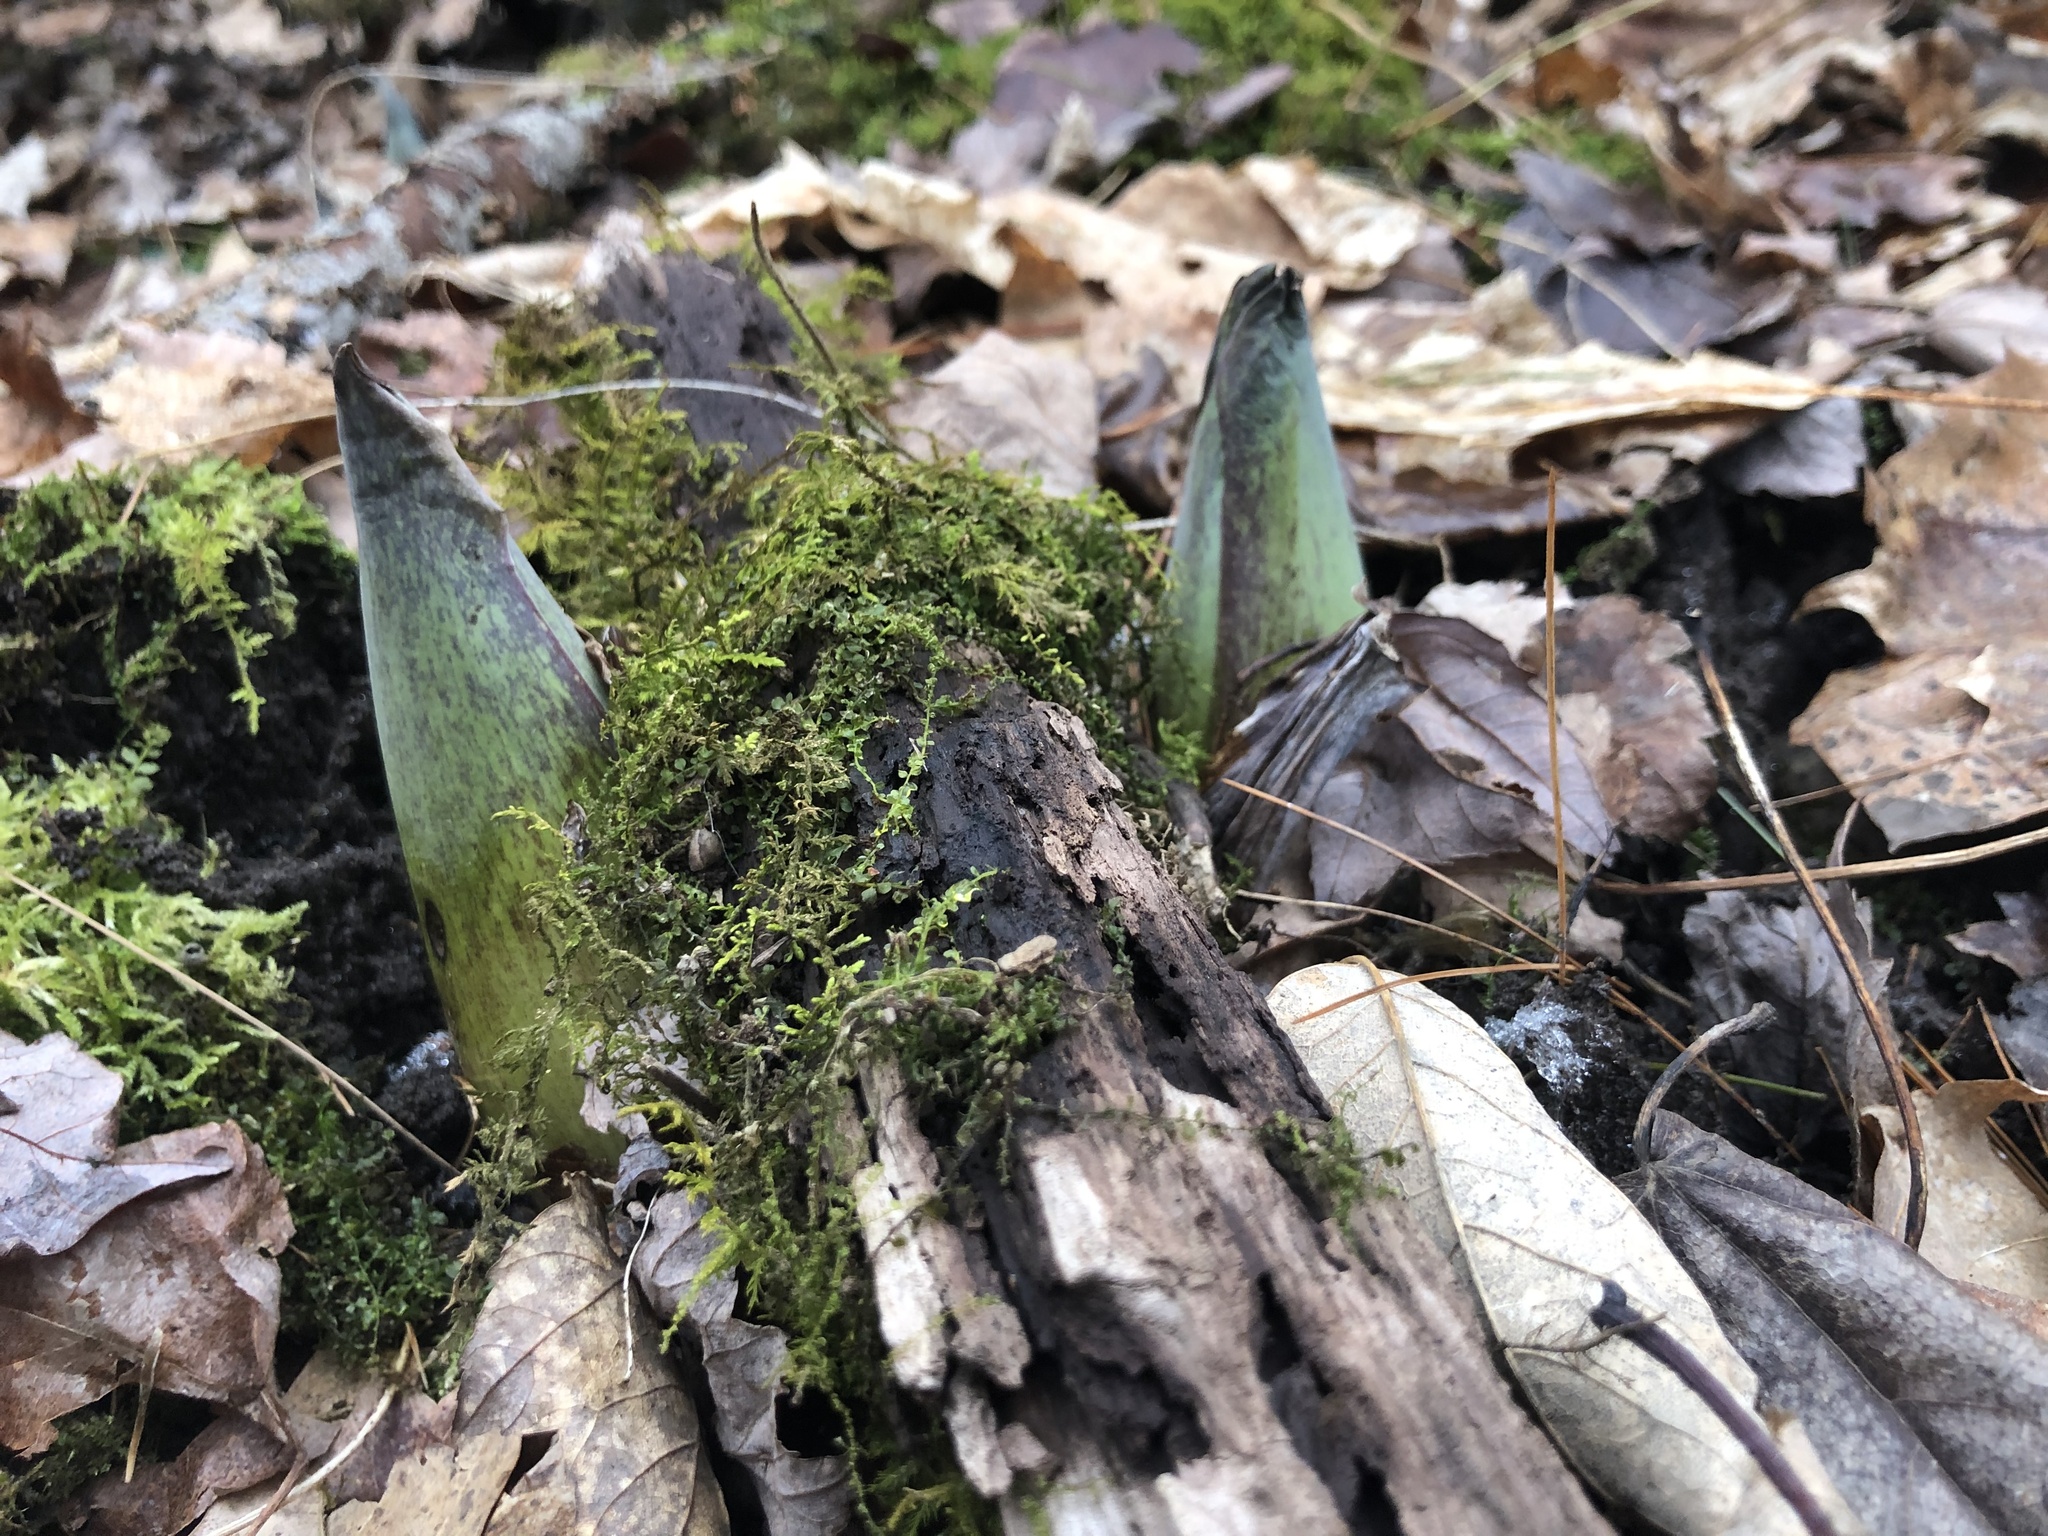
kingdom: Plantae
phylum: Tracheophyta
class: Liliopsida
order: Alismatales
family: Araceae
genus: Symplocarpus
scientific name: Symplocarpus foetidus
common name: Eastern skunk cabbage
